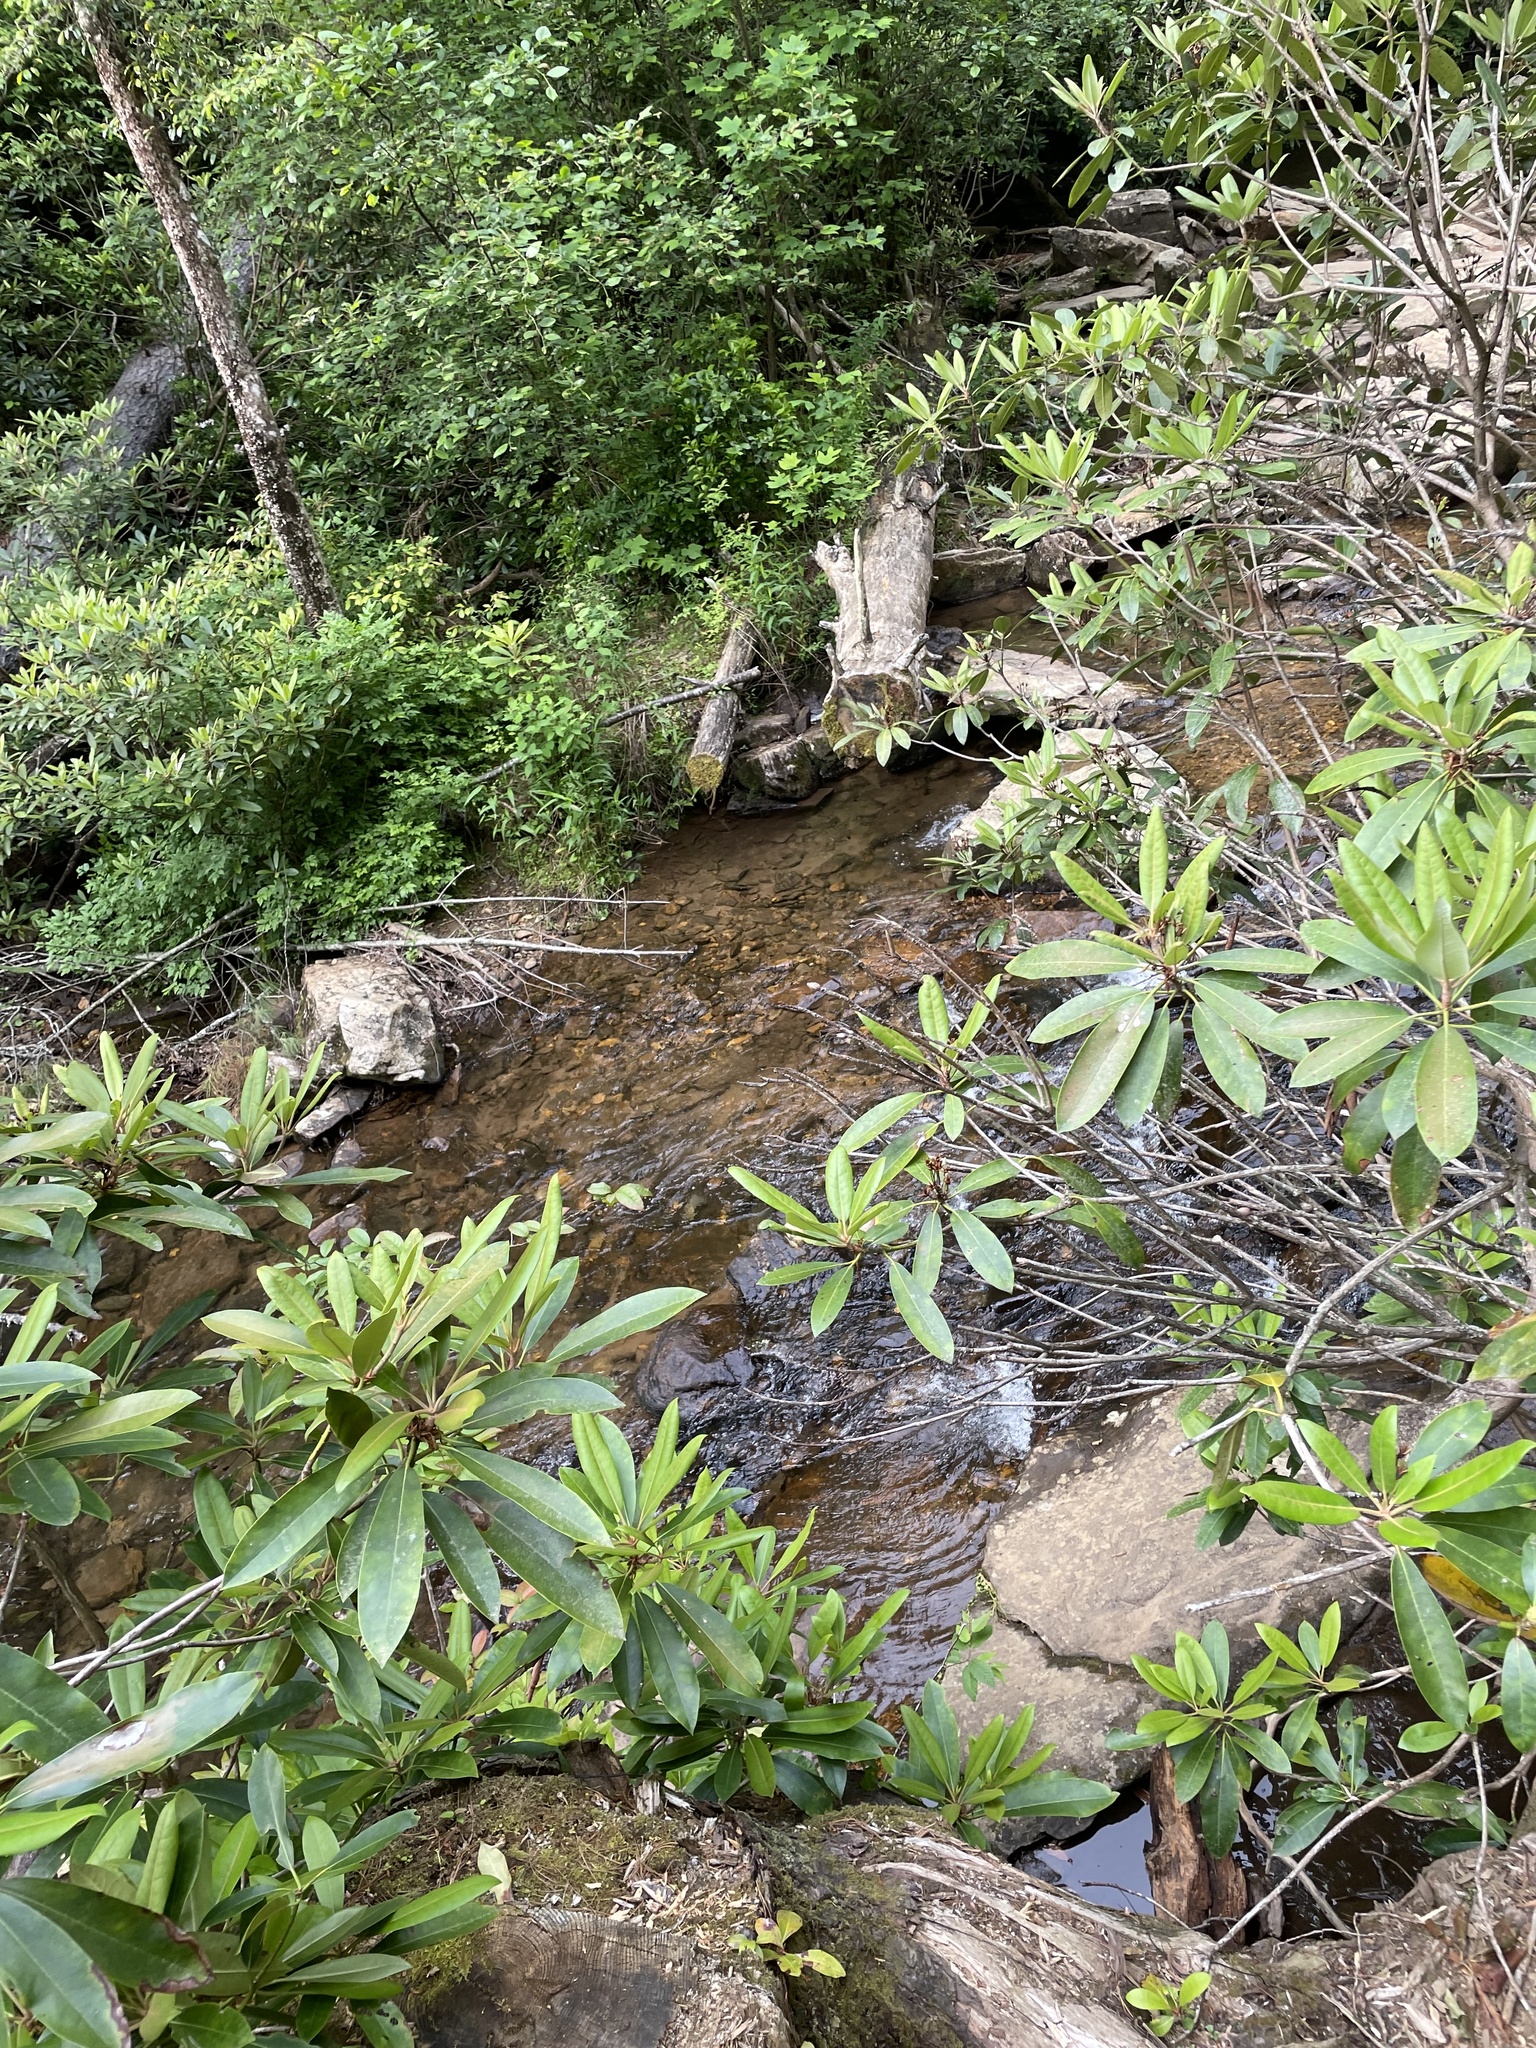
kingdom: Plantae
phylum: Tracheophyta
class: Magnoliopsida
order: Ericales
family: Ericaceae
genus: Rhododendron
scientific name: Rhododendron maximum
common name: Great rhododendron
